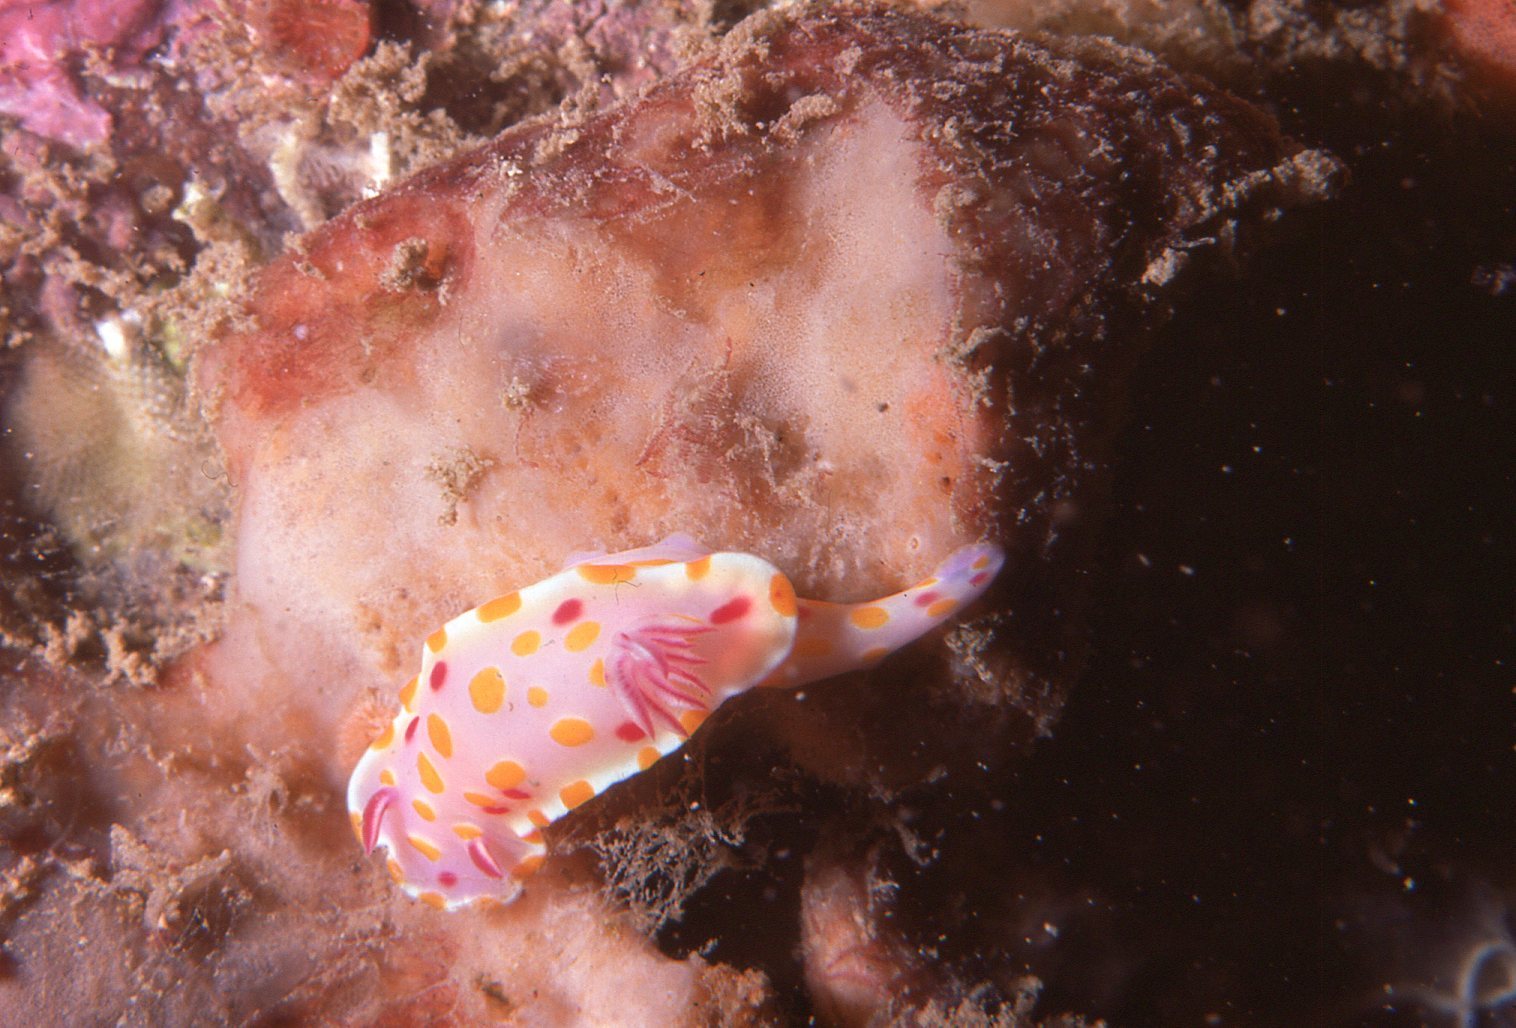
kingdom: Animalia
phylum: Mollusca
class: Gastropoda
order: Nudibranchia
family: Chromodorididae
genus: Ceratosoma
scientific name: Ceratosoma amoenum
